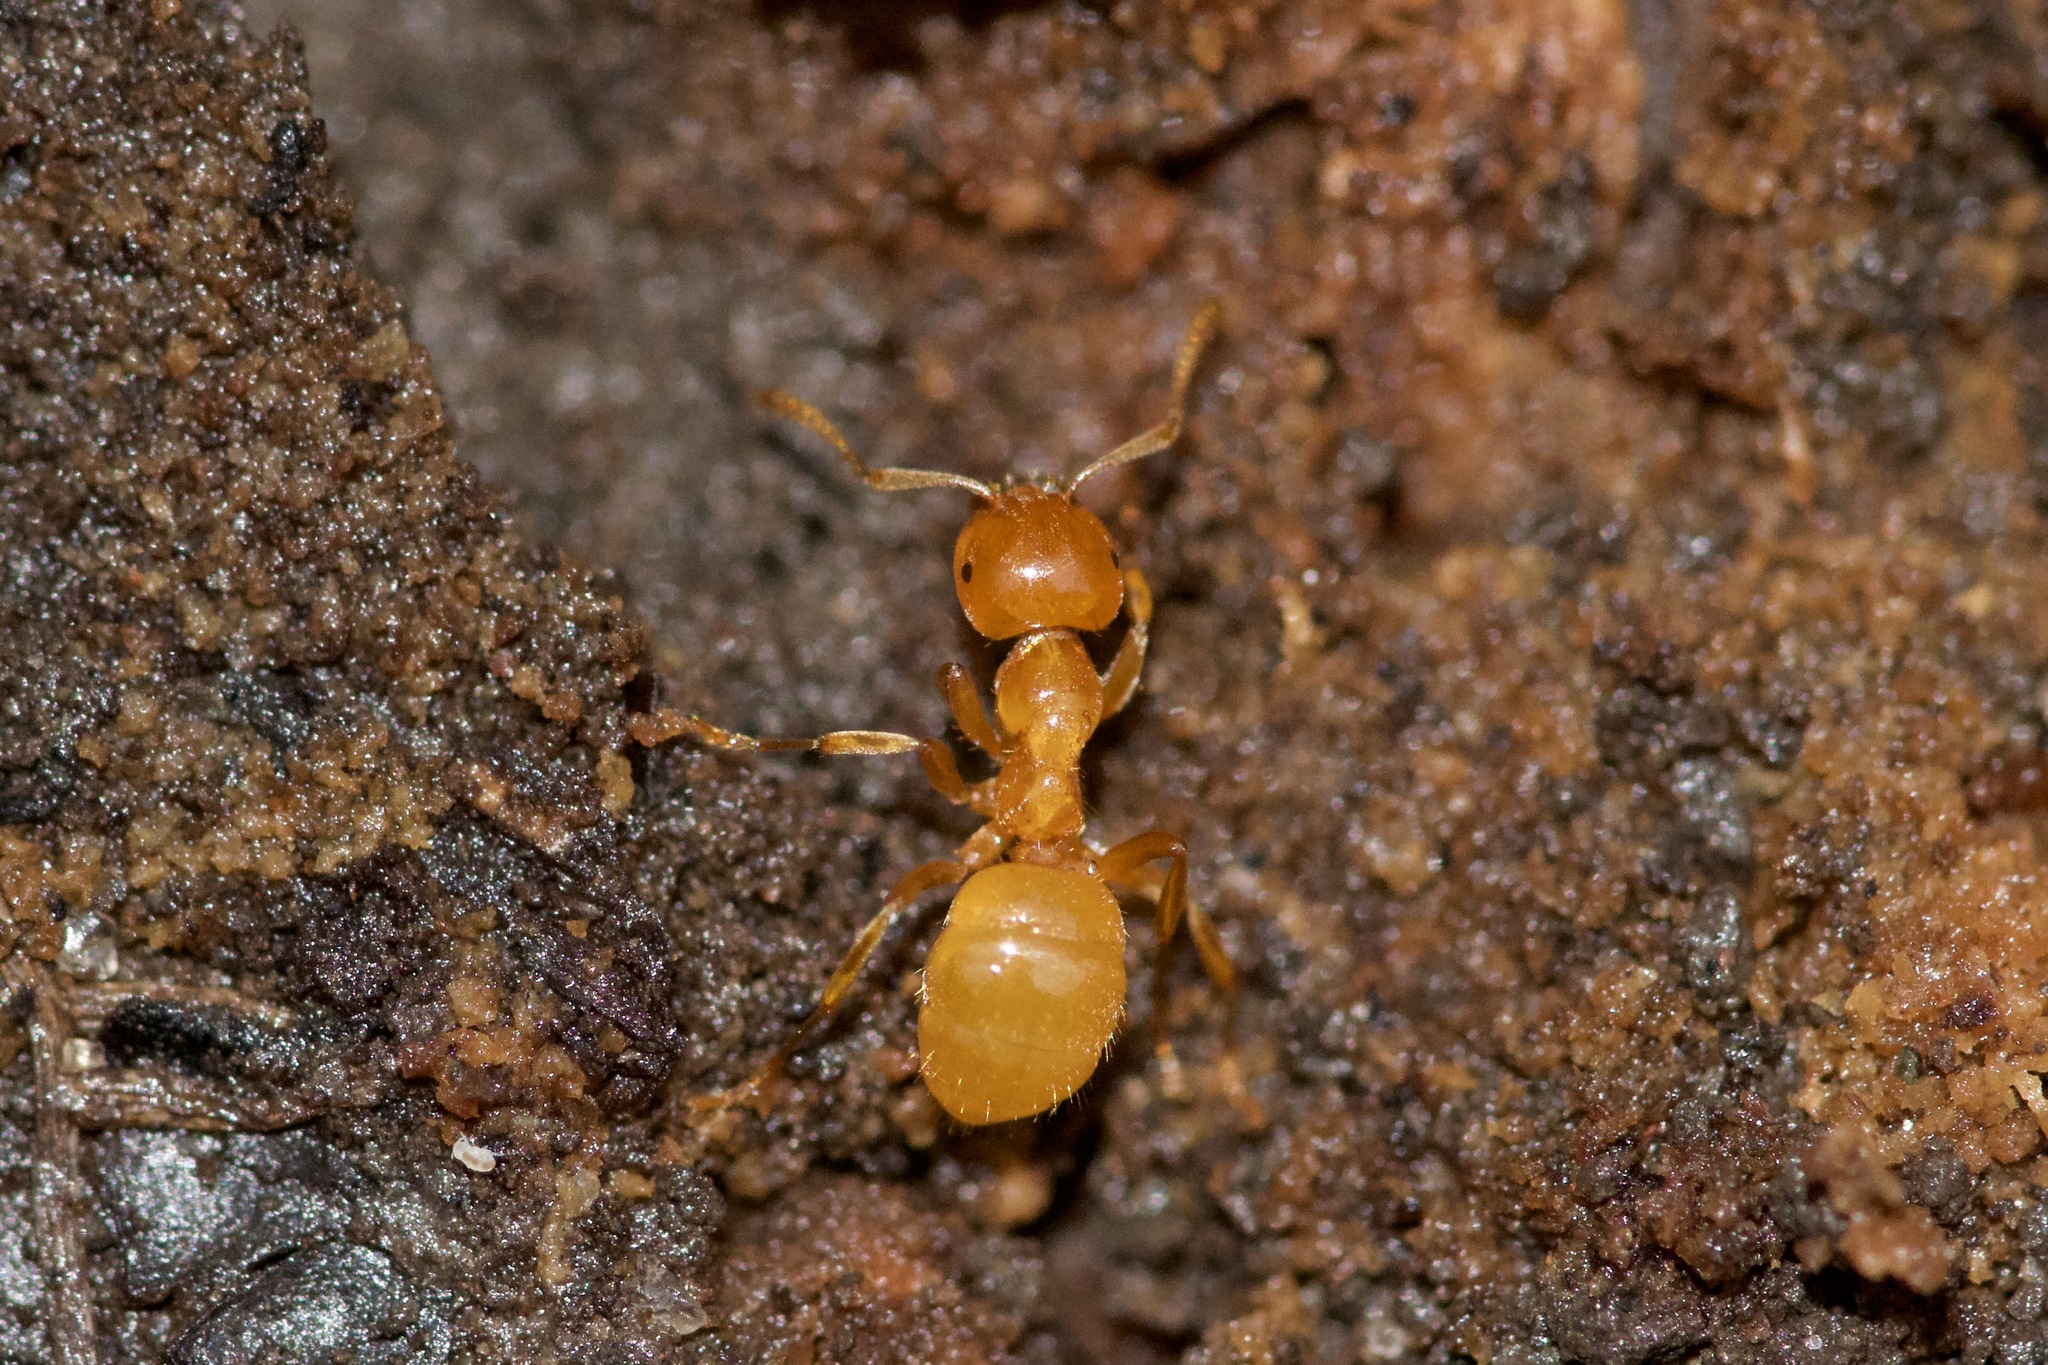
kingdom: Animalia
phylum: Arthropoda
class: Insecta
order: Hymenoptera
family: Formicidae
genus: Lasius
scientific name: Lasius claviger
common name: Common citronella ant
